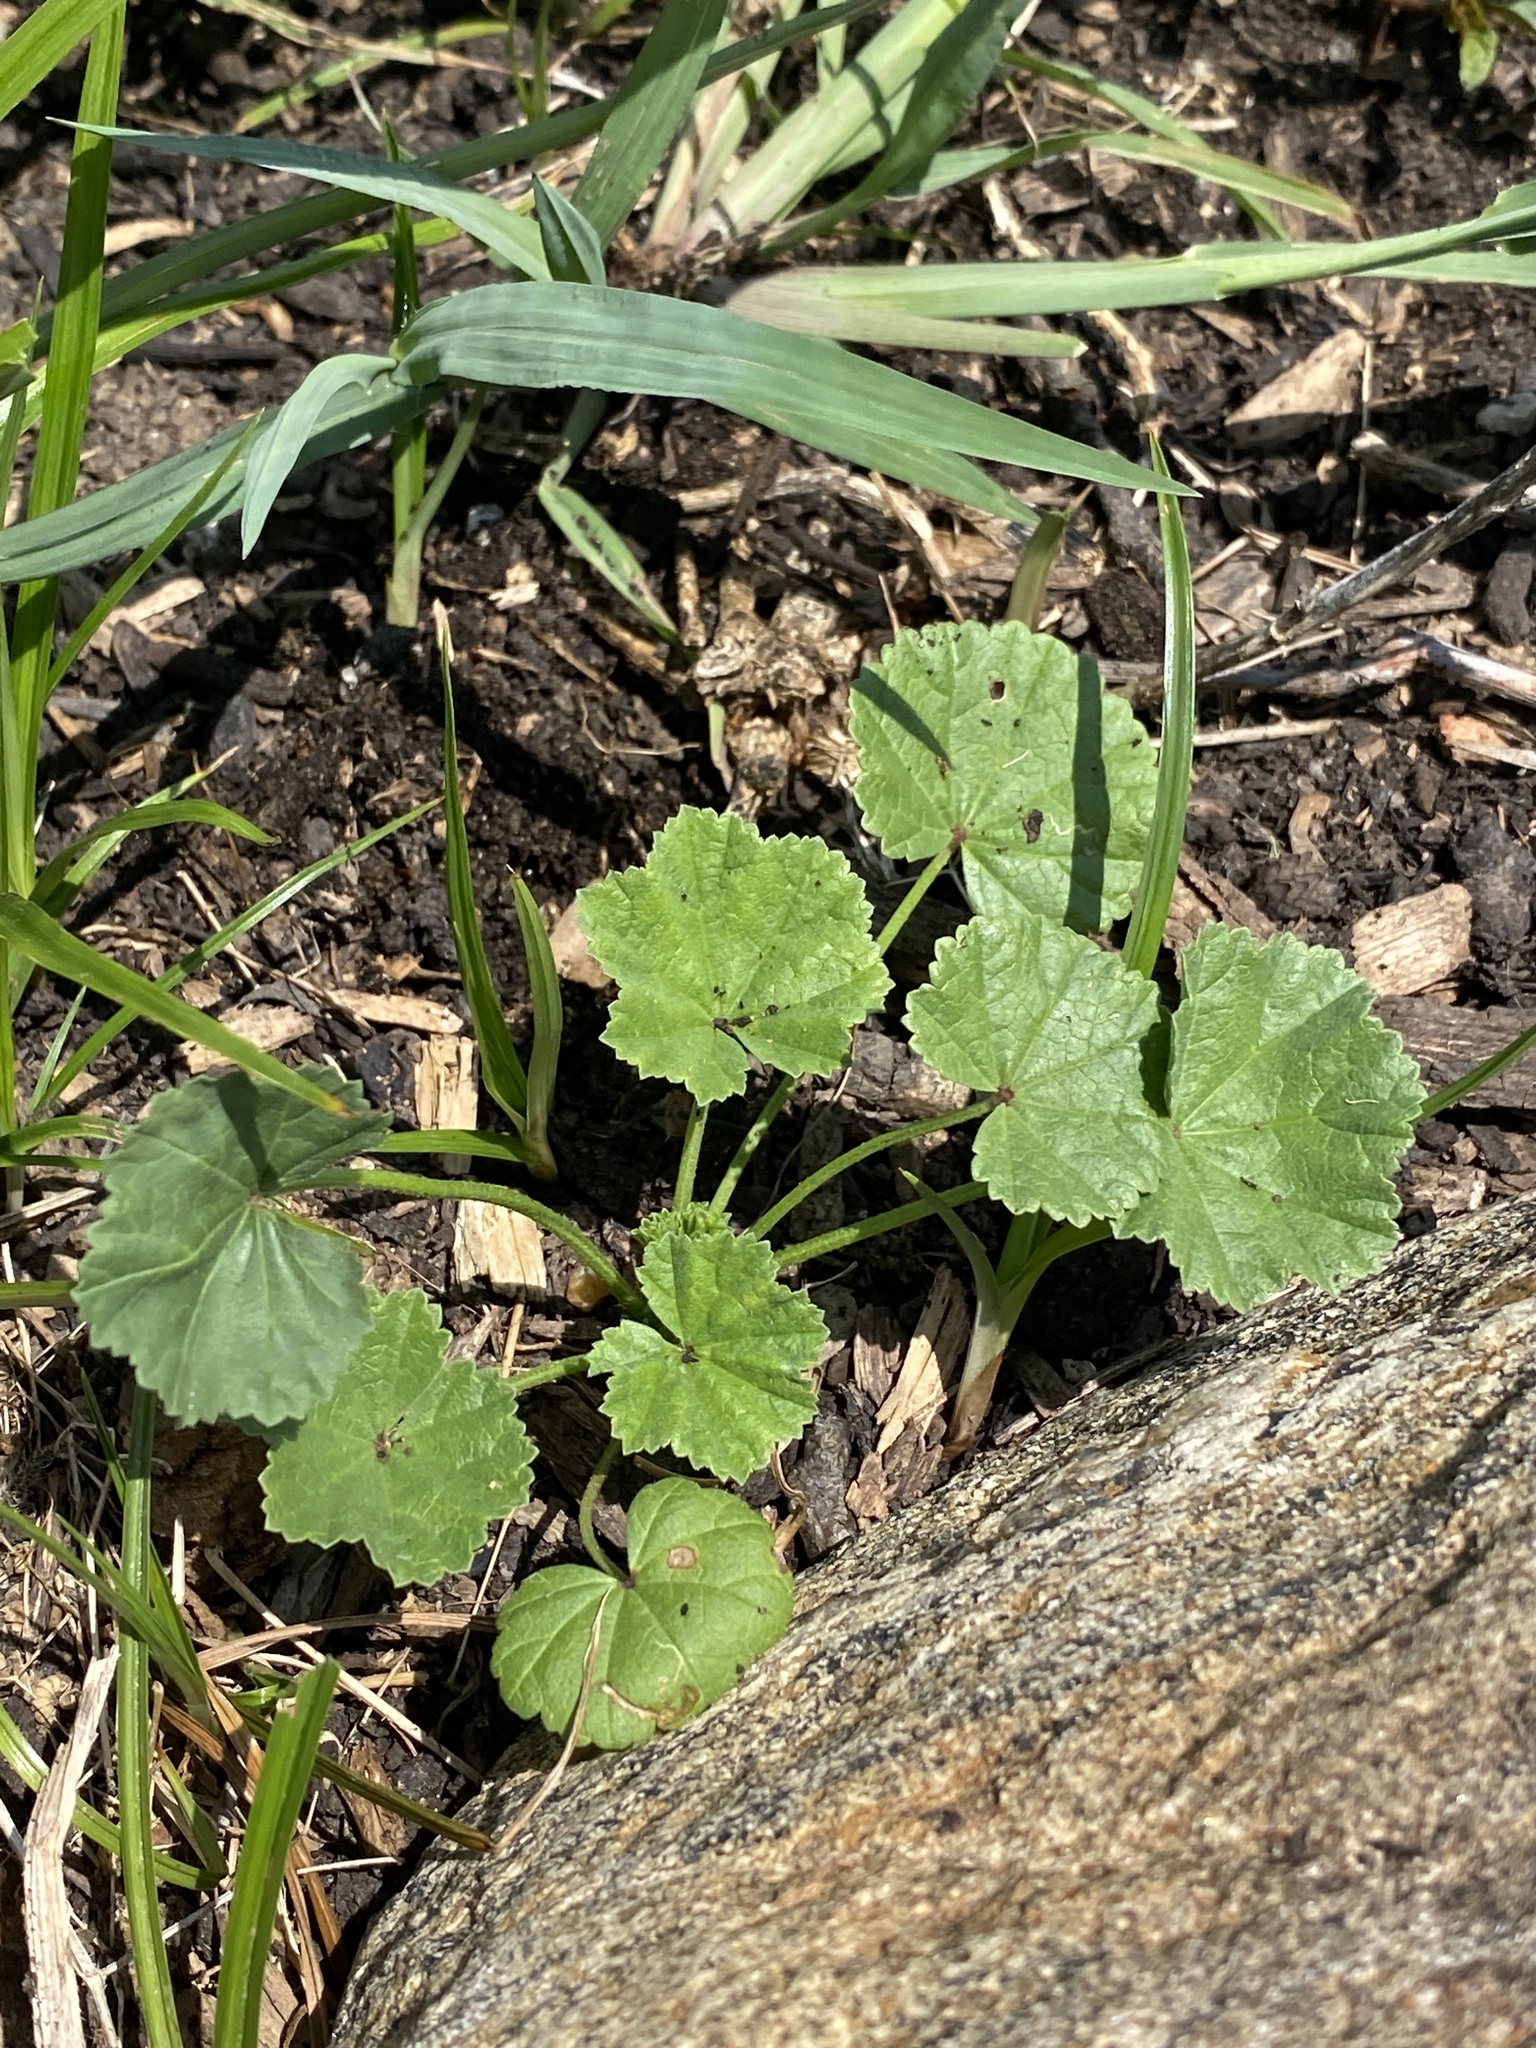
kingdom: Plantae
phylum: Tracheophyta
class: Magnoliopsida
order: Malvales
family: Malvaceae
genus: Malva
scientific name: Malva neglecta
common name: Common mallow
